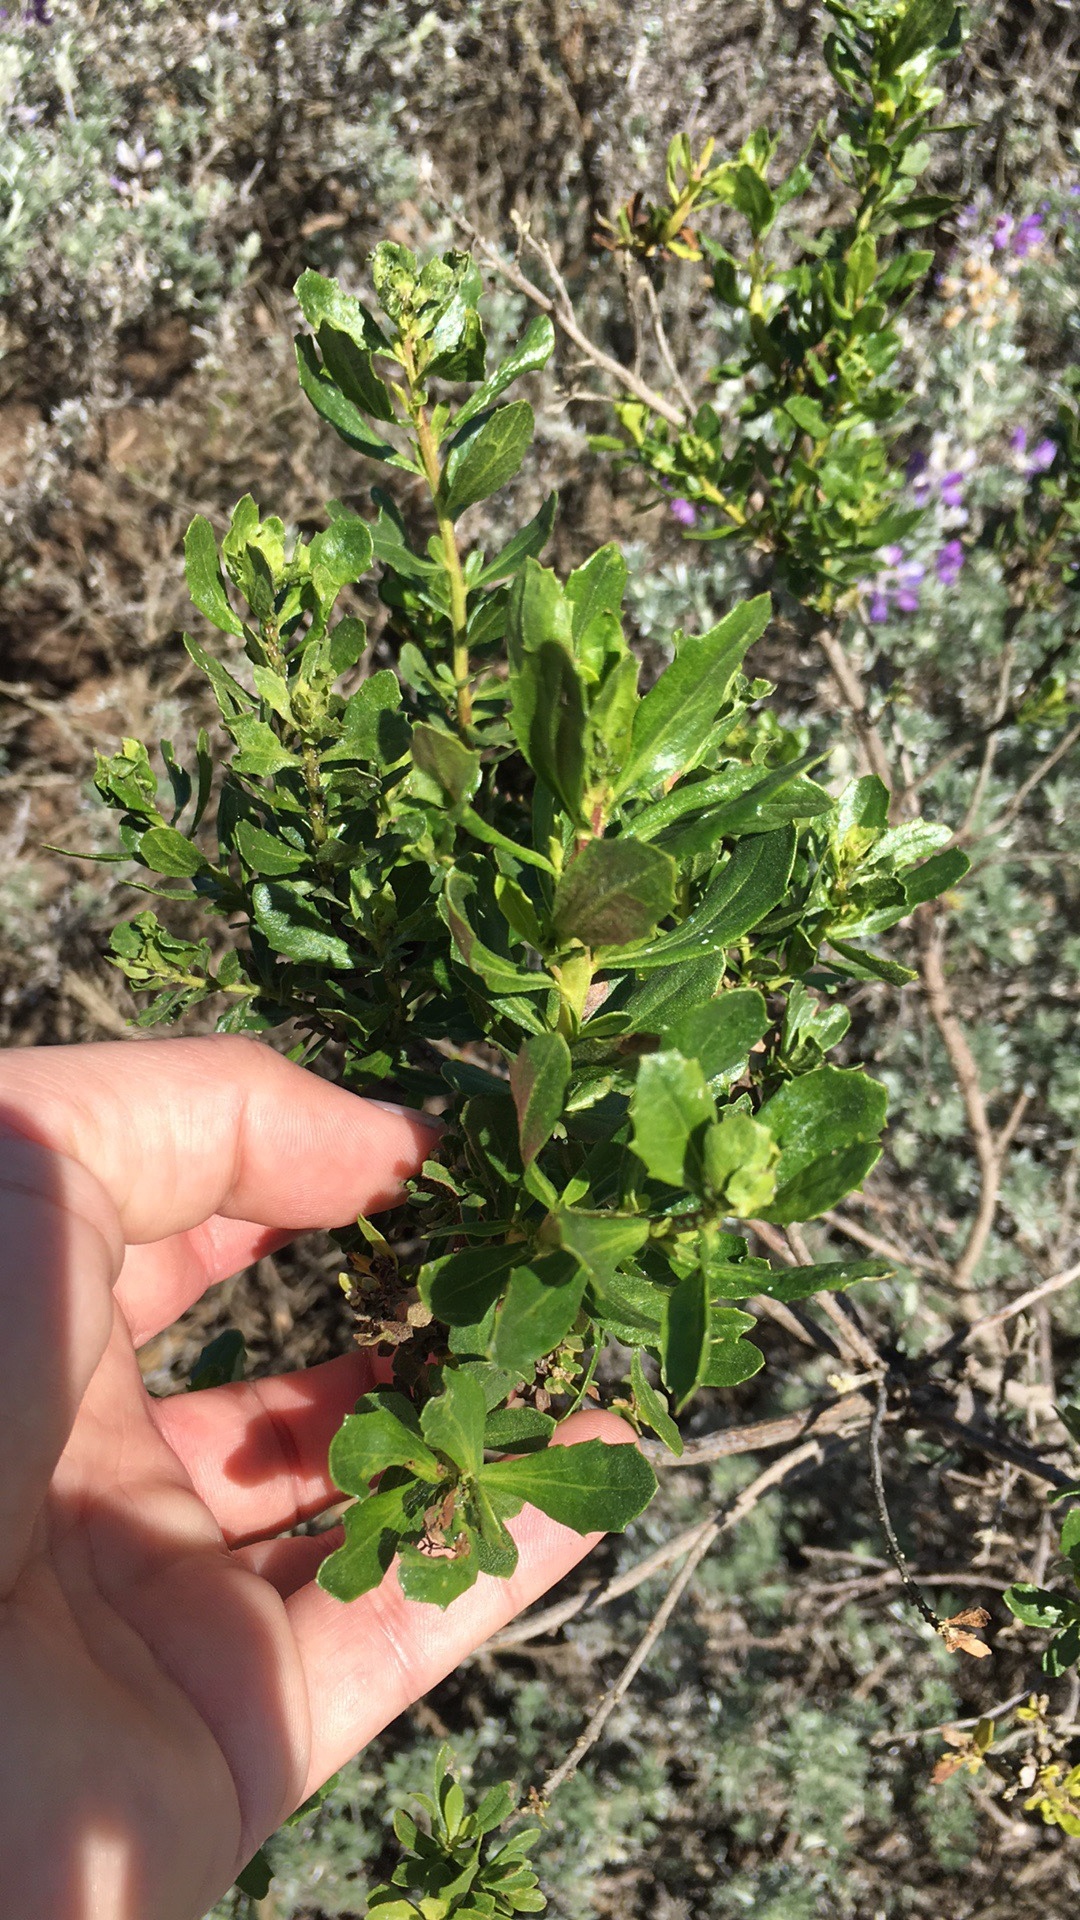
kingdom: Plantae
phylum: Tracheophyta
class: Magnoliopsida
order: Asterales
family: Asteraceae
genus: Baccharis
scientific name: Baccharis pilularis
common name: Coyotebrush
